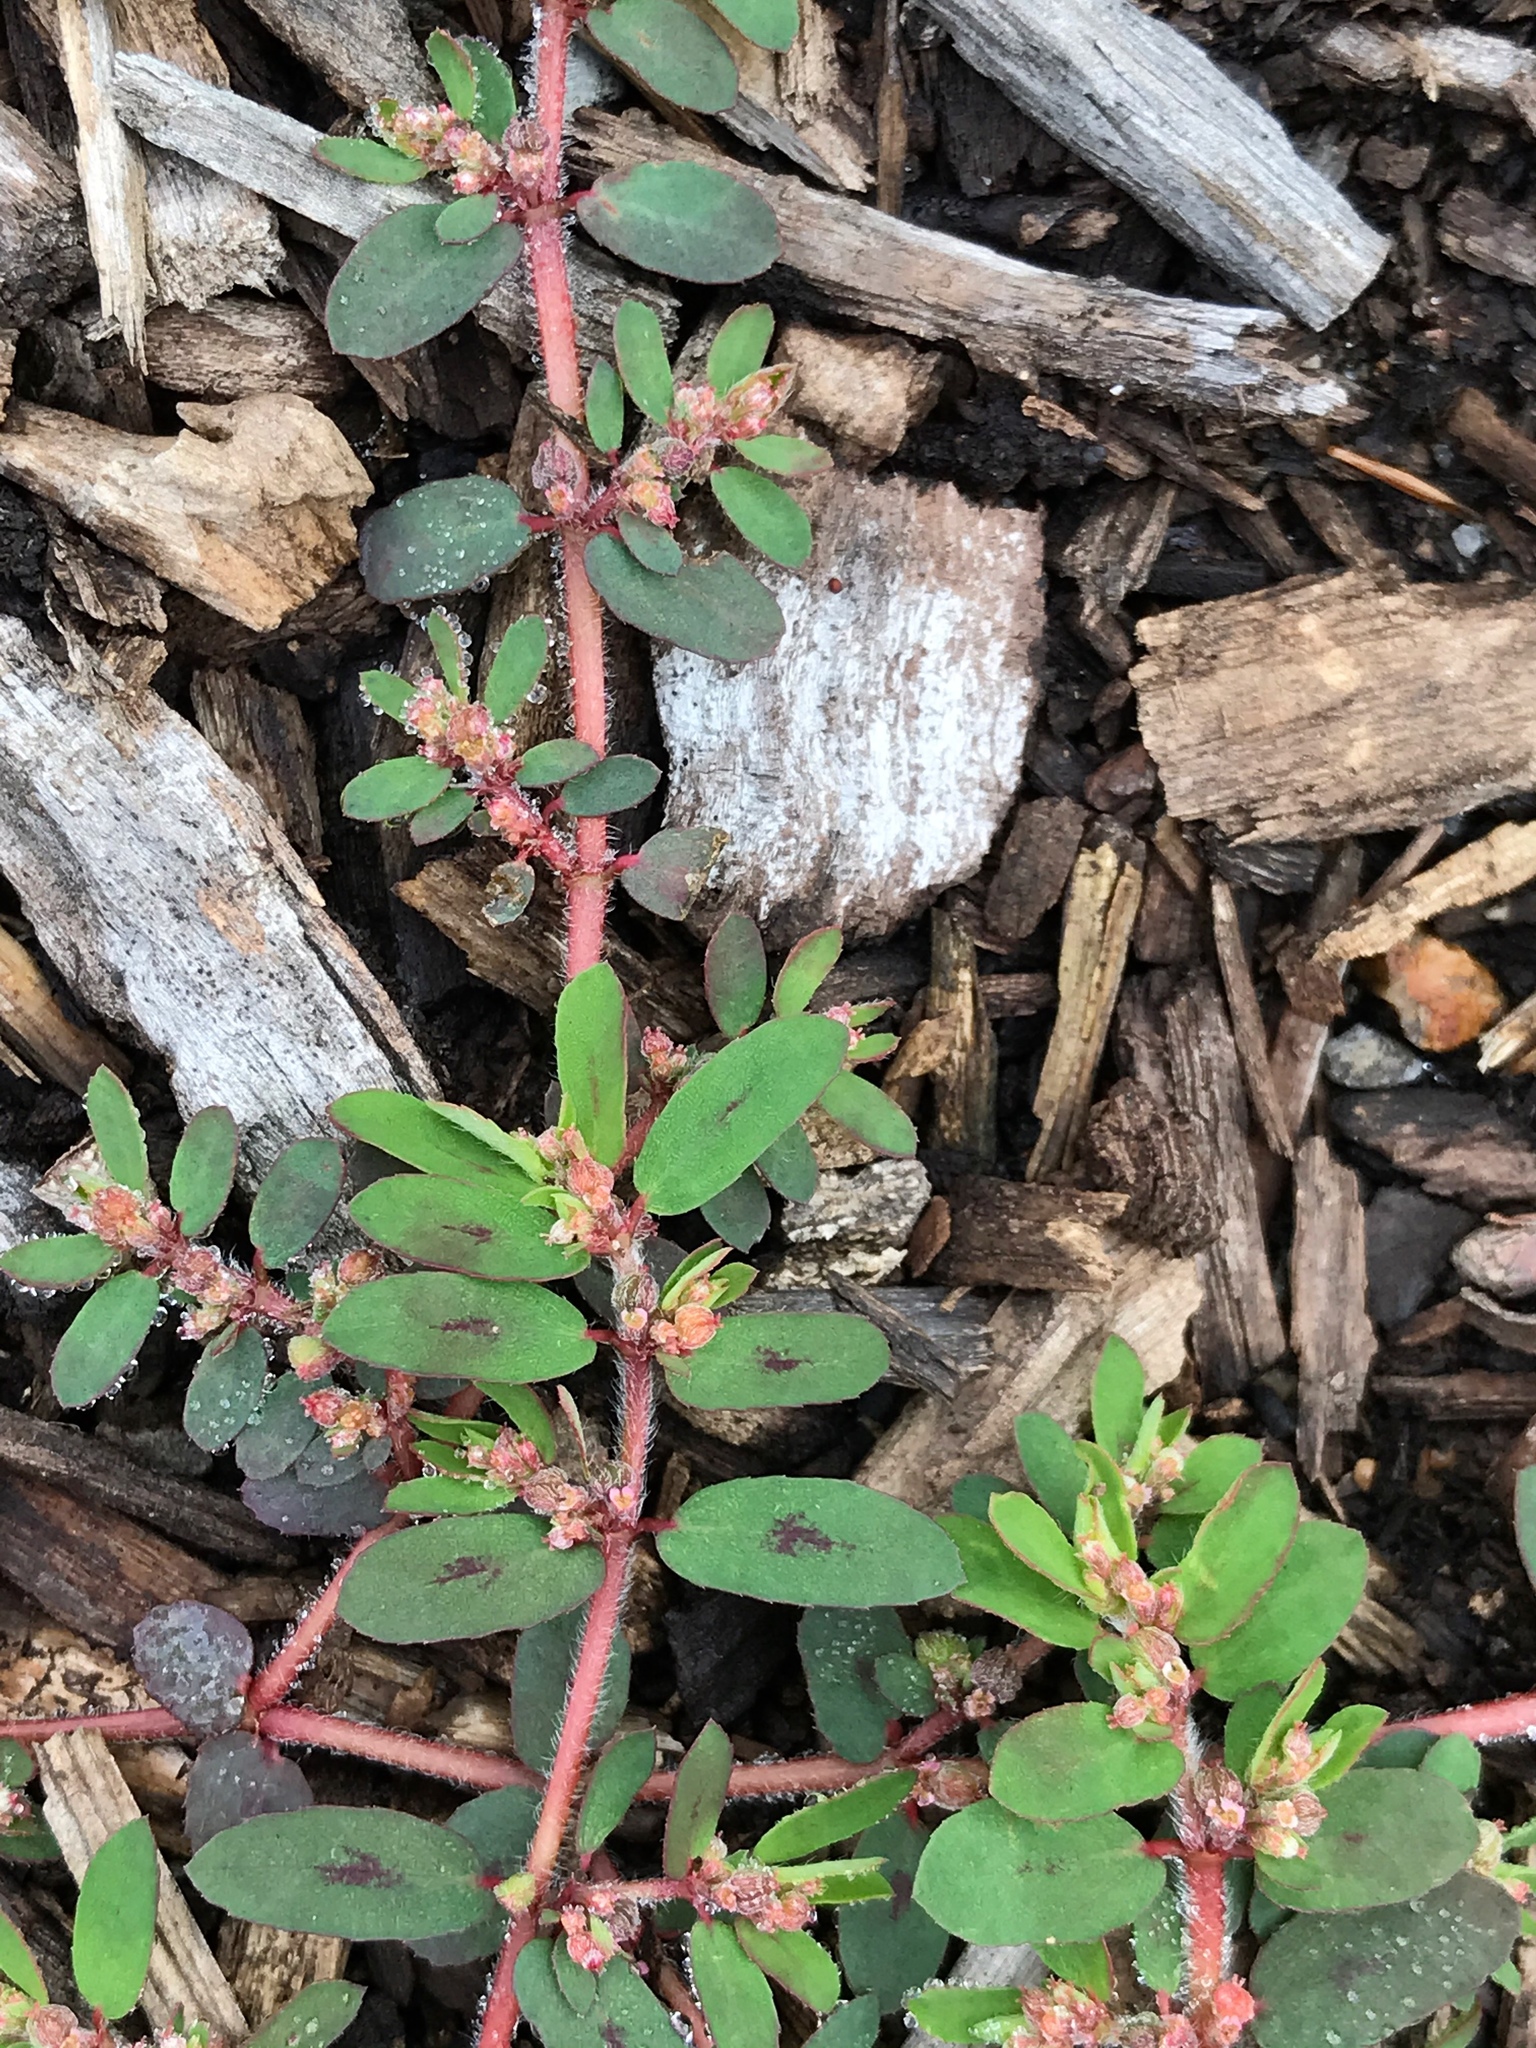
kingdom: Plantae
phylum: Tracheophyta
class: Magnoliopsida
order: Malpighiales
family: Euphorbiaceae
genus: Euphorbia
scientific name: Euphorbia maculata
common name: Spotted spurge
